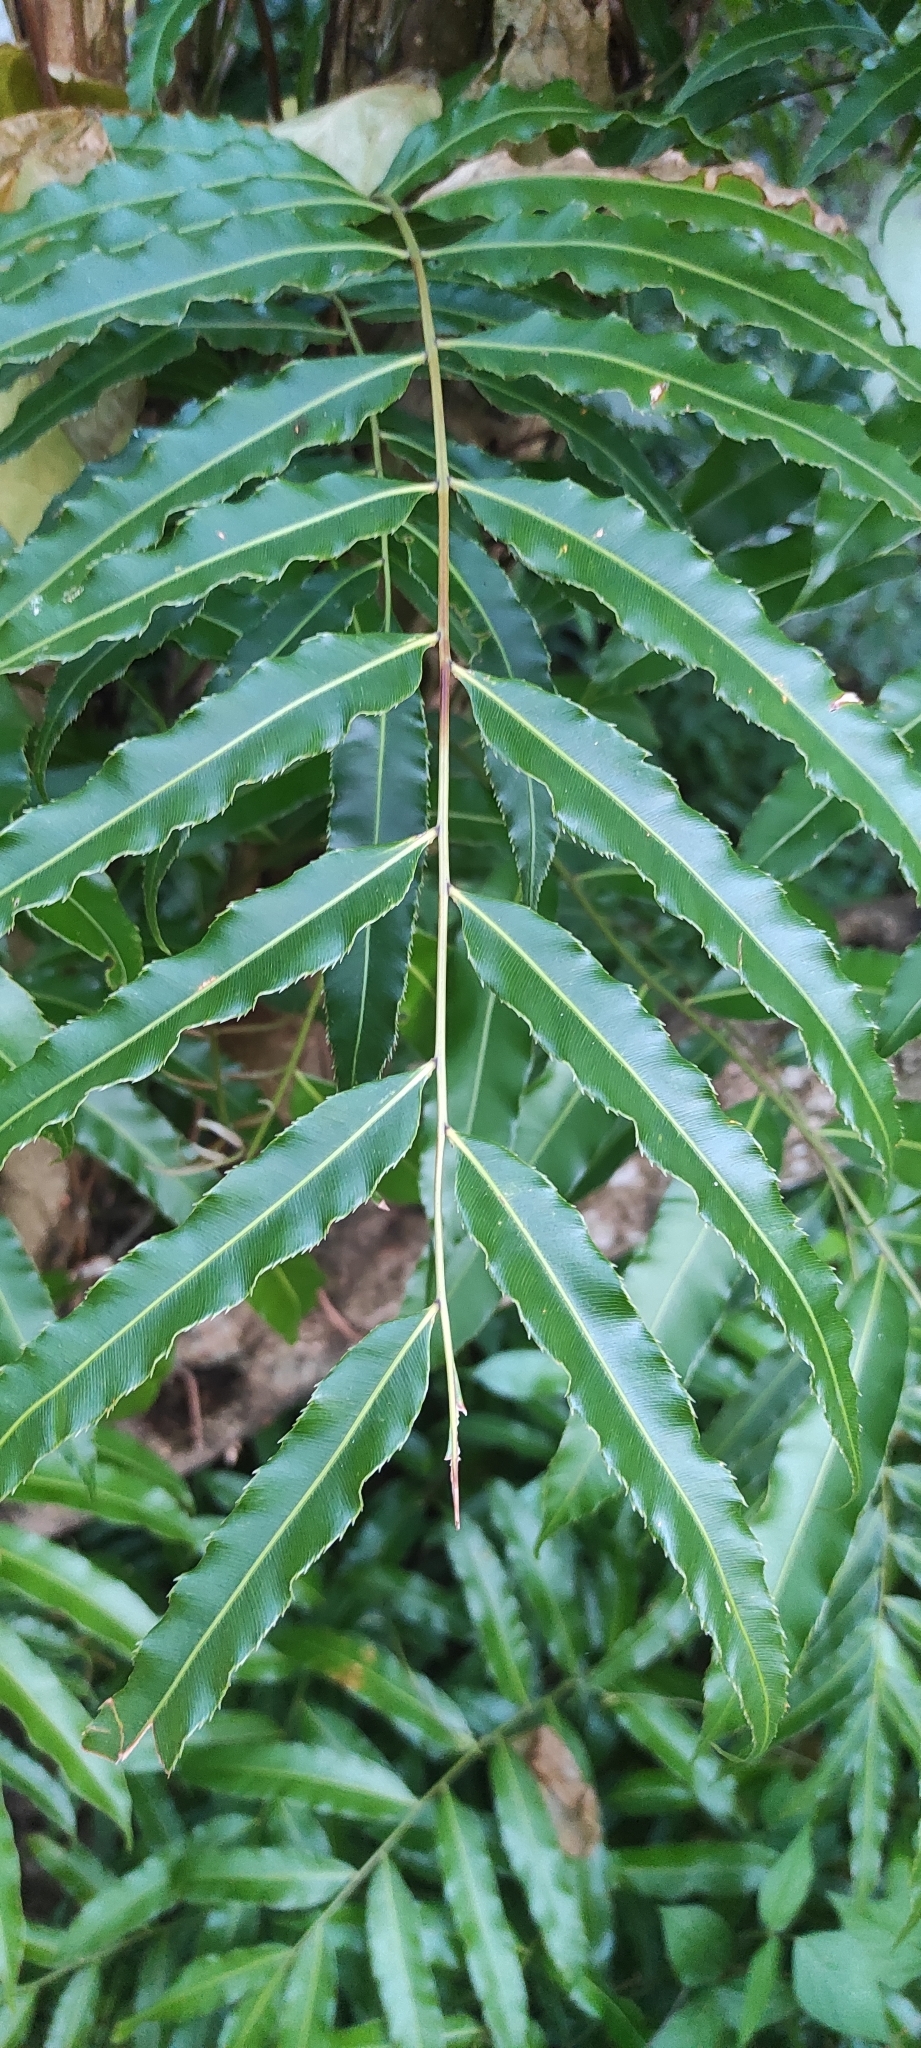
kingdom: Plantae
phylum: Tracheophyta
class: Polypodiopsida
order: Polypodiales
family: Blechnaceae
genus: Stenochlaena
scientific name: Stenochlaena palustris
